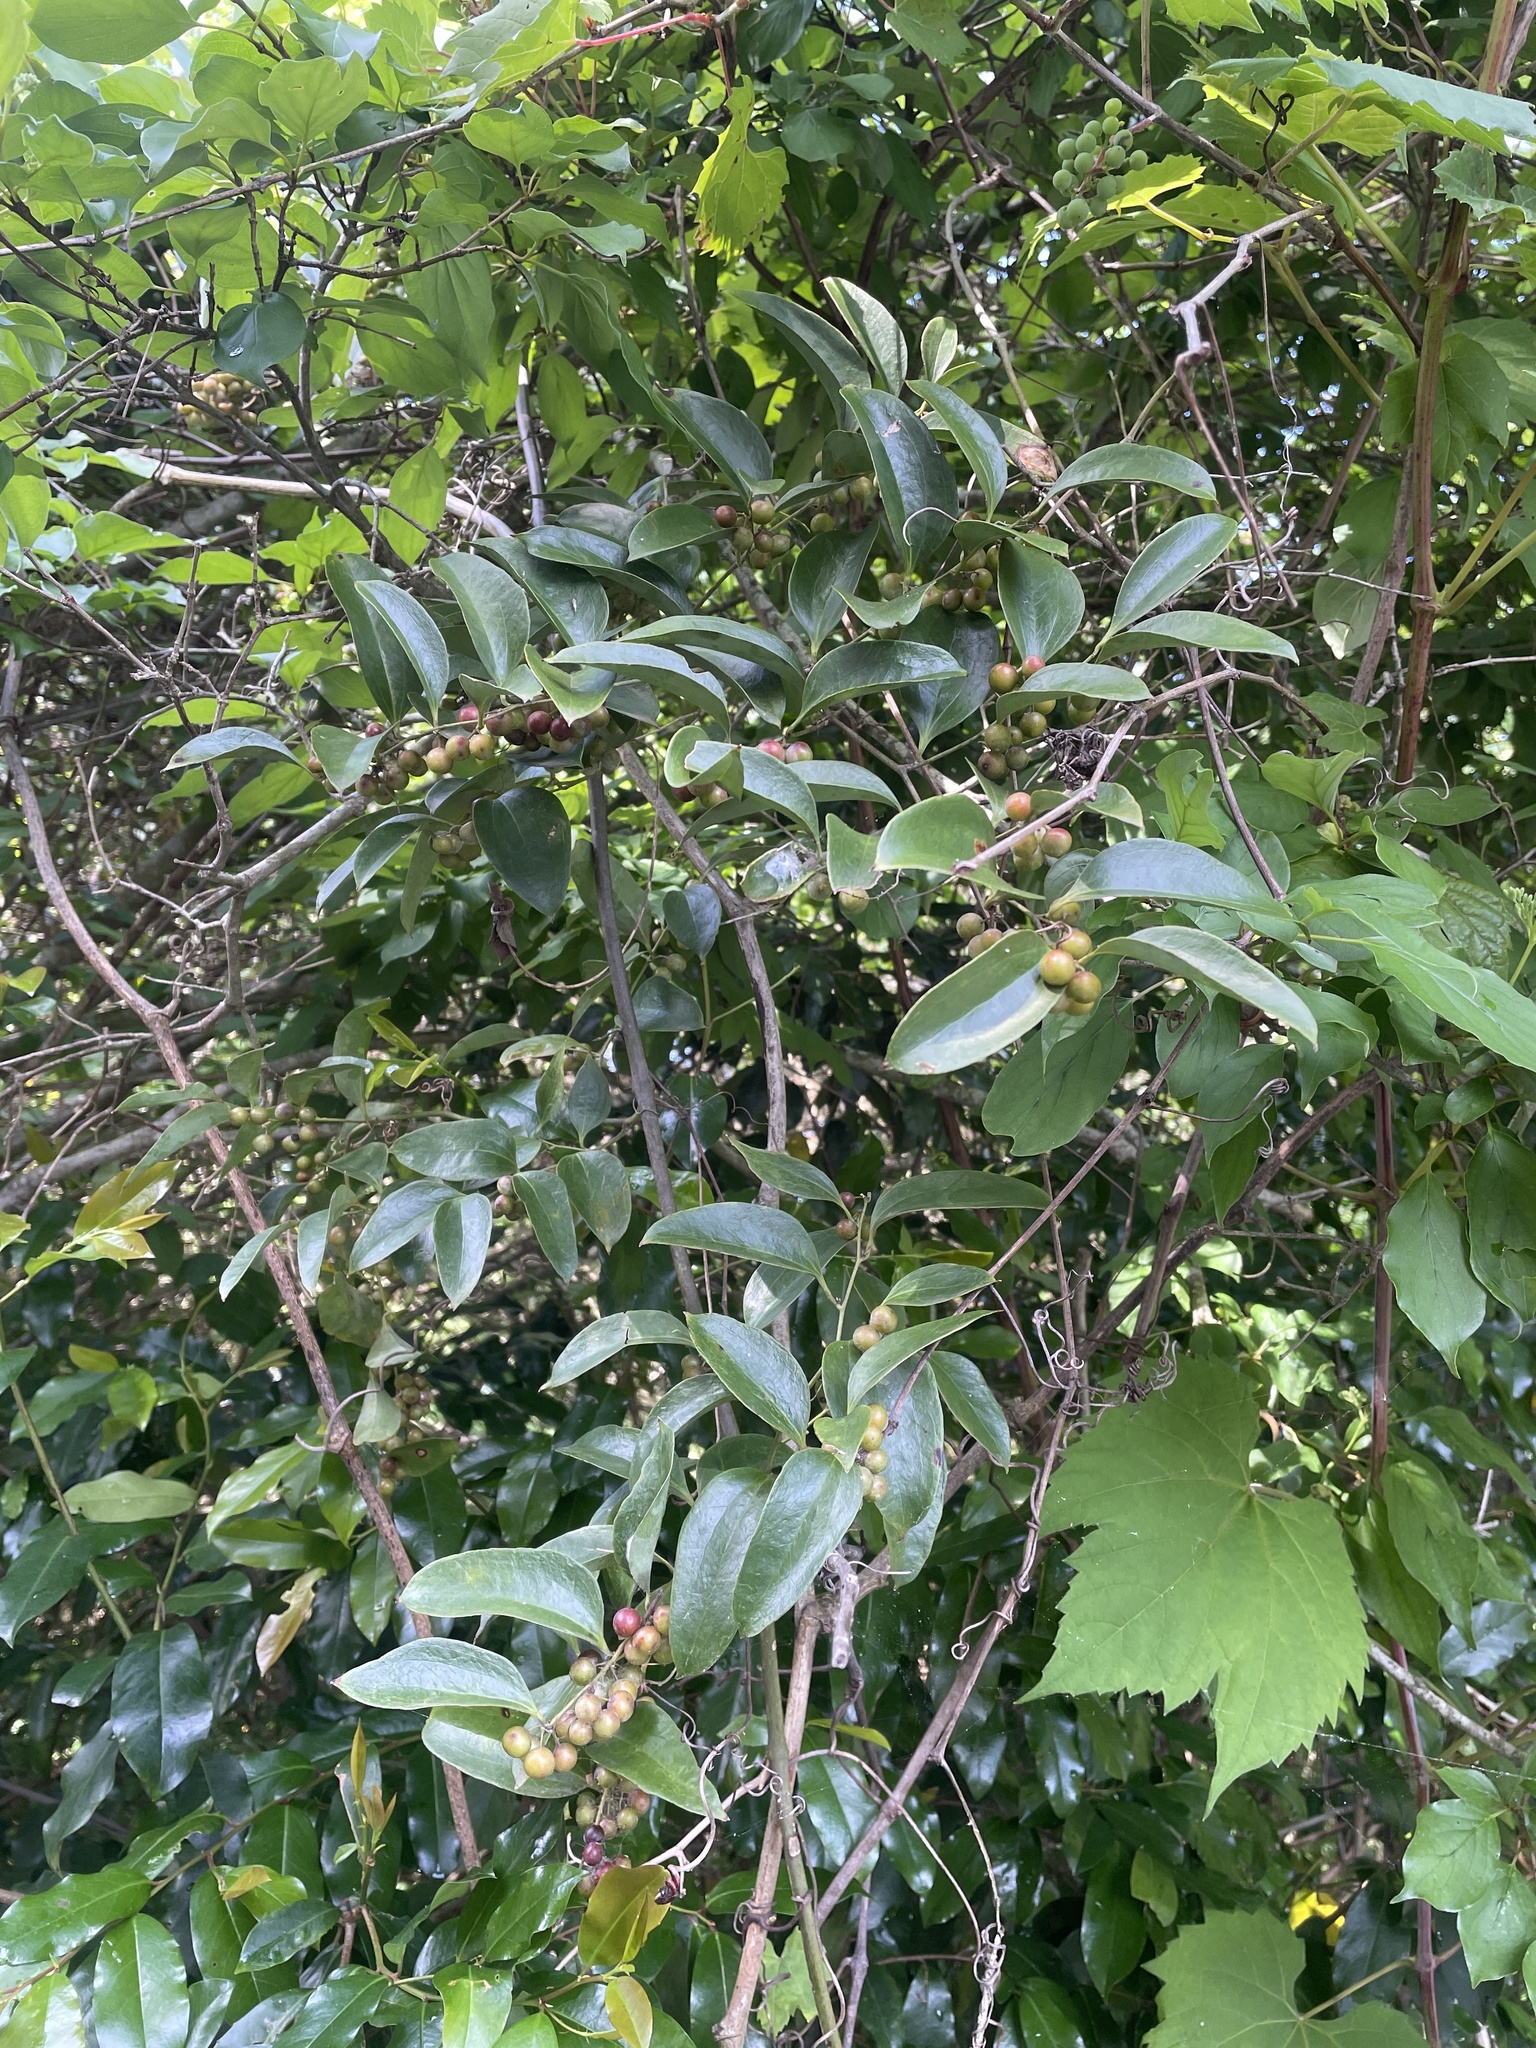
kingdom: Plantae
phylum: Tracheophyta
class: Liliopsida
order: Liliales
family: Smilacaceae
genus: Smilax
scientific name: Smilax maritima
